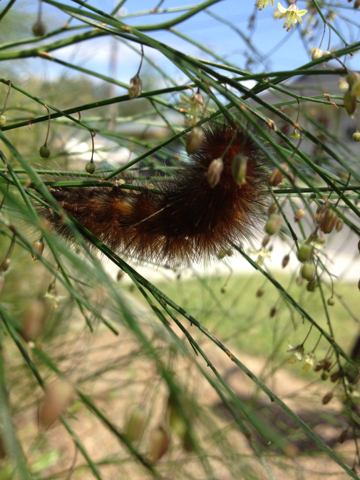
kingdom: Animalia
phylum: Arthropoda
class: Insecta
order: Lepidoptera
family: Erebidae
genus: Spilosoma
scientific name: Spilosoma virginica
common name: Virginia tiger moth
